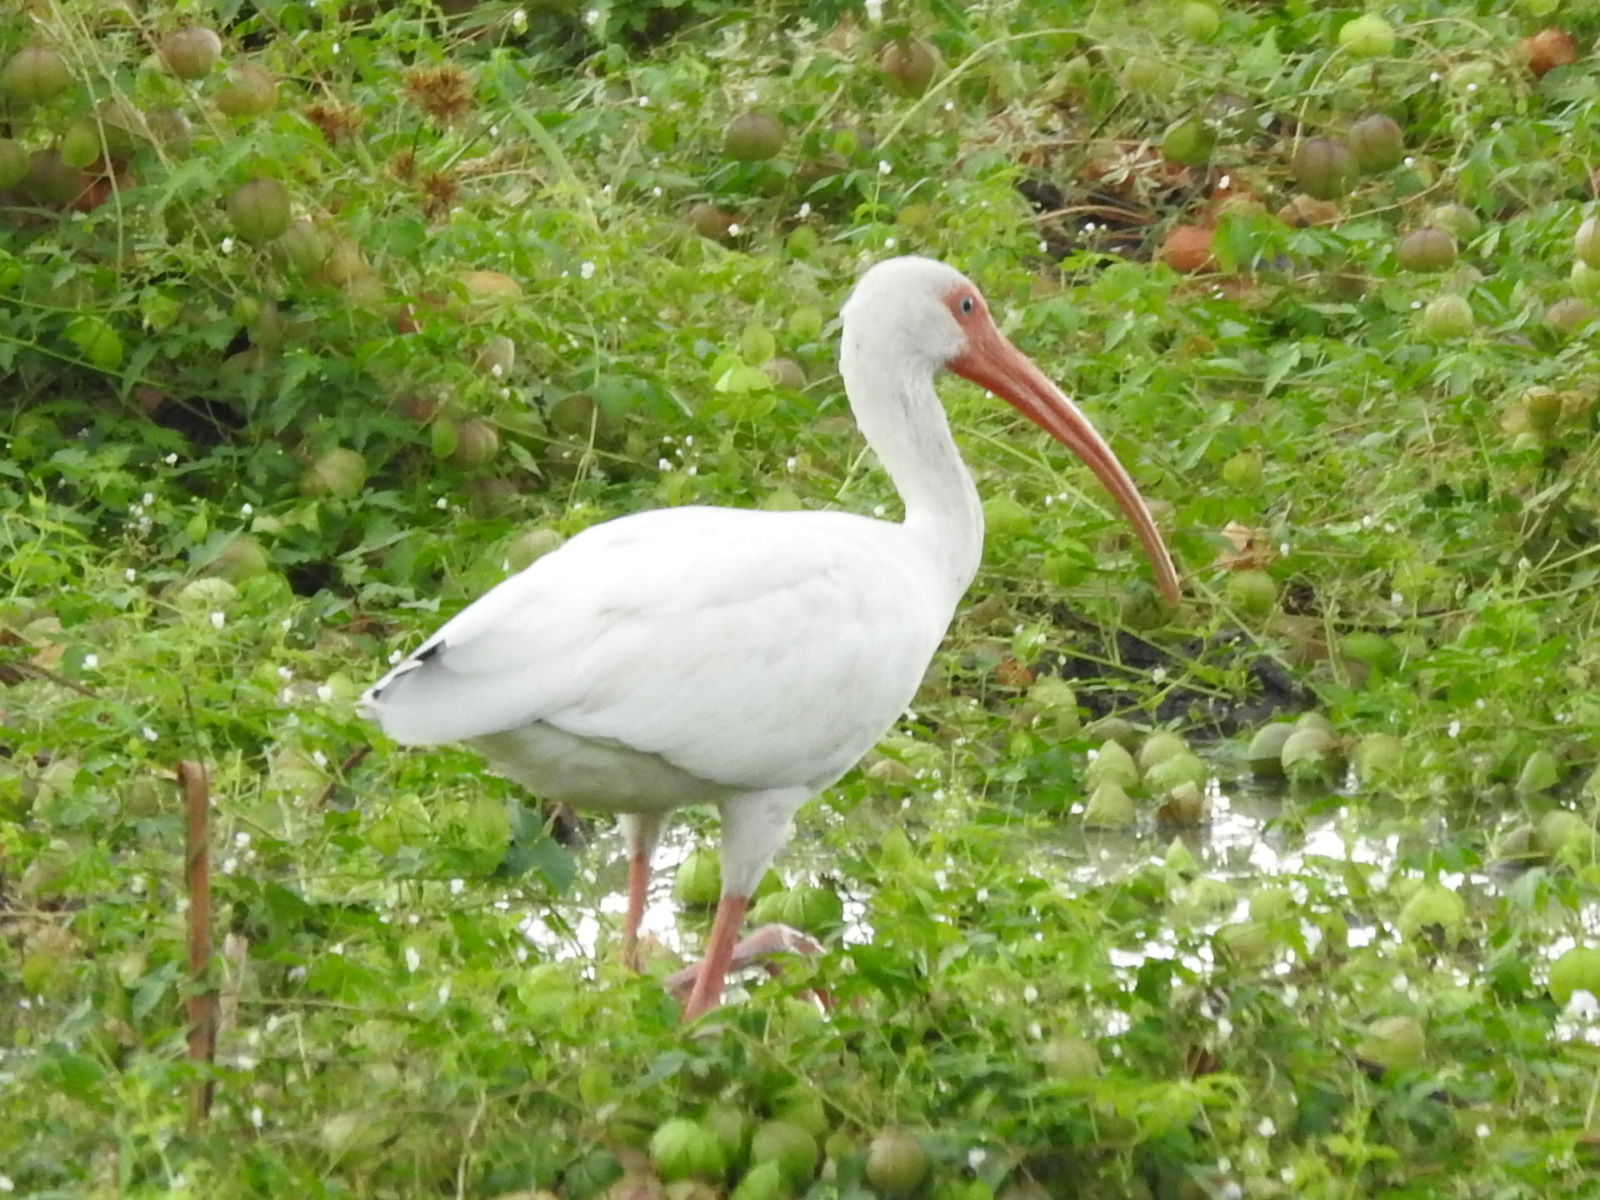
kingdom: Animalia
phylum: Chordata
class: Aves
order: Pelecaniformes
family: Threskiornithidae
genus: Eudocimus
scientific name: Eudocimus albus
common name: White ibis
